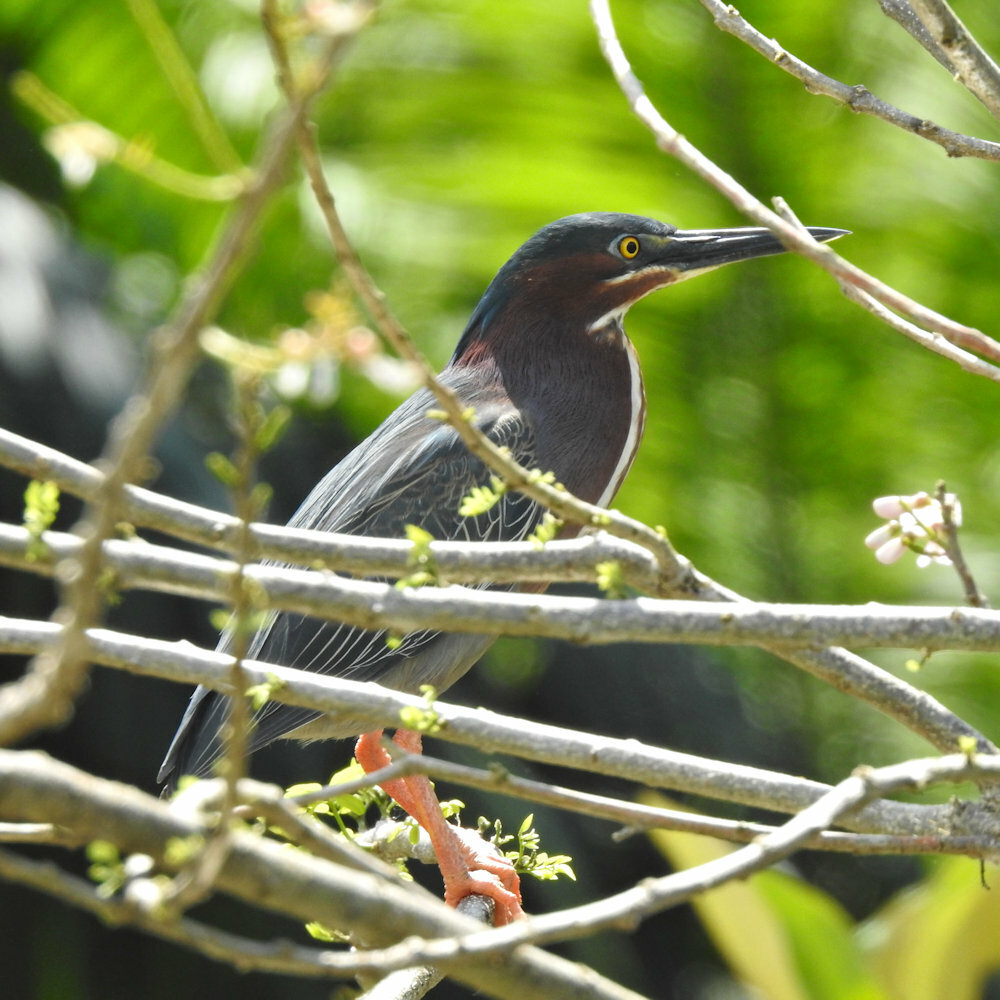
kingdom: Animalia
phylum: Chordata
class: Aves
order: Pelecaniformes
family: Ardeidae
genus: Butorides
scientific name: Butorides virescens
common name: Green heron
